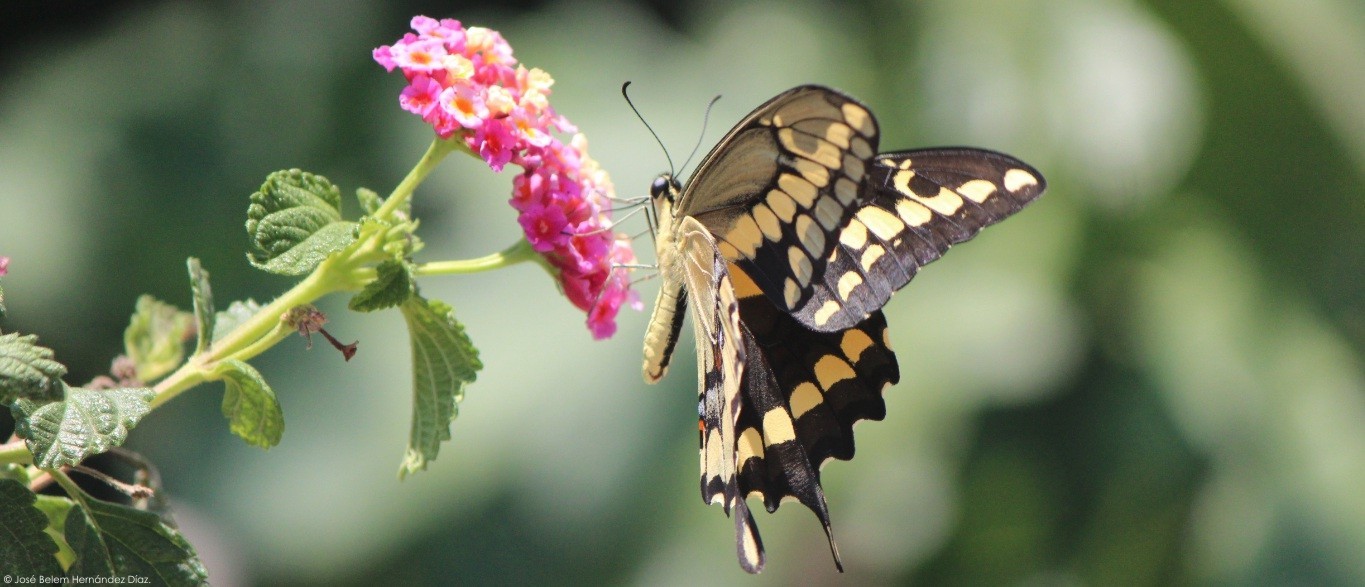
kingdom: Animalia
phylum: Arthropoda
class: Insecta
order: Lepidoptera
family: Papilionidae
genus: Papilio
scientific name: Papilio rumiko
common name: Western giant swallowtail
